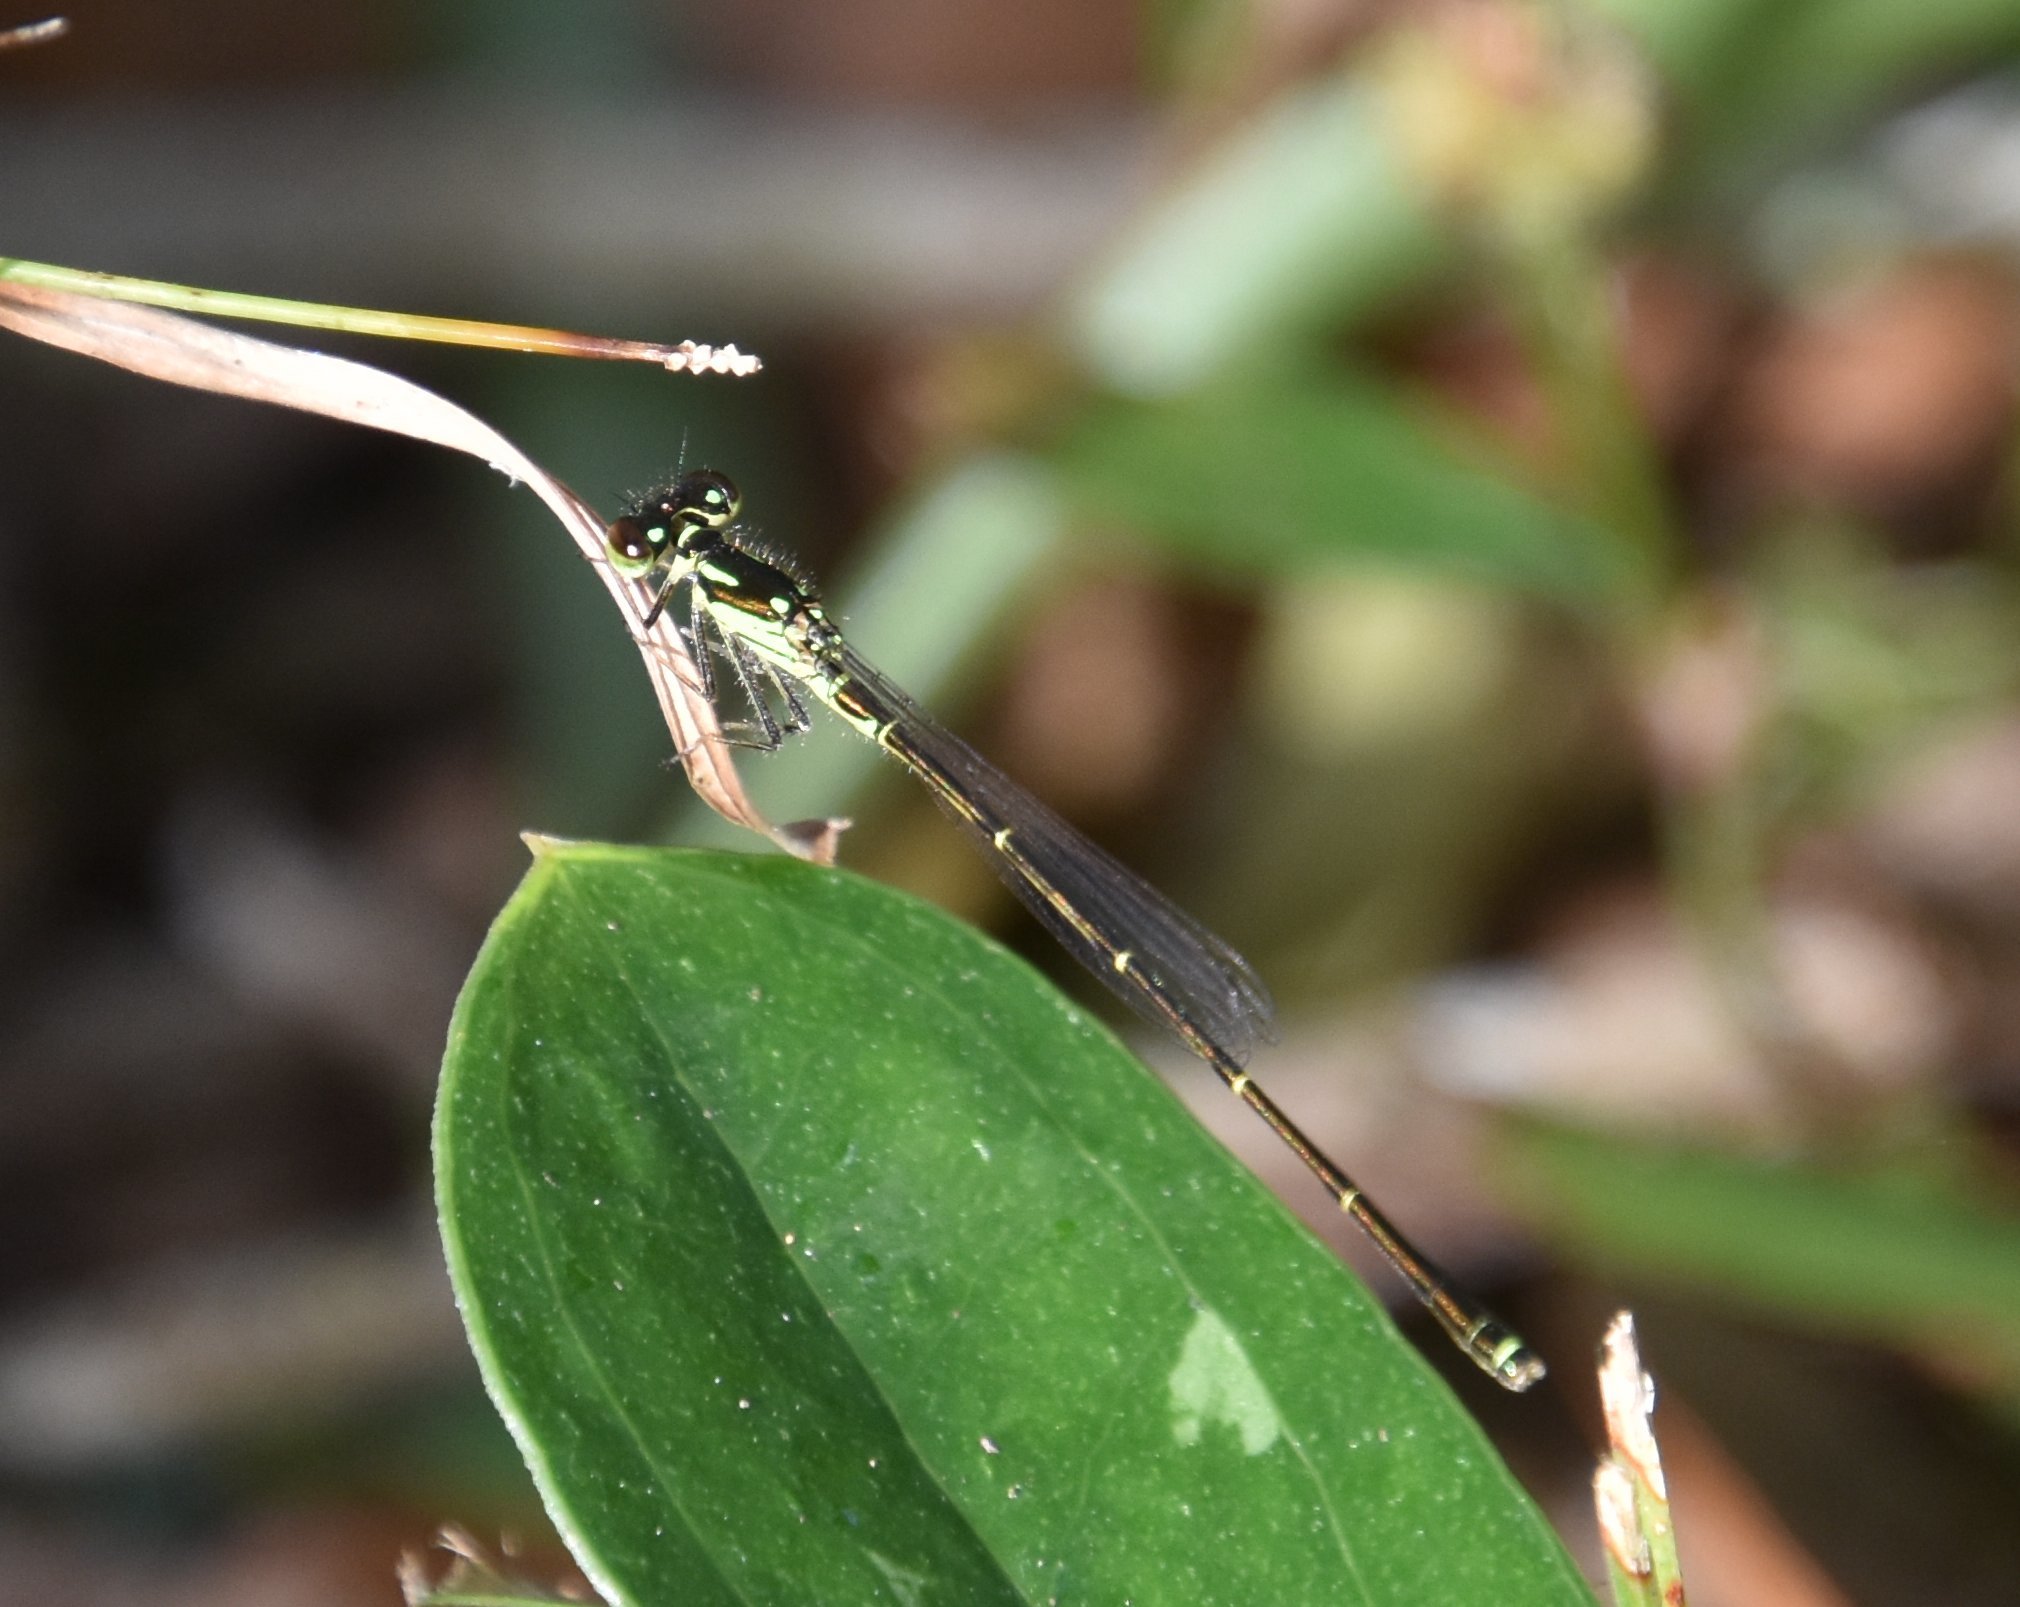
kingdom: Animalia
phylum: Arthropoda
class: Insecta
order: Odonata
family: Coenagrionidae
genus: Ischnura
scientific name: Ischnura posita
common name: Fragile forktail
